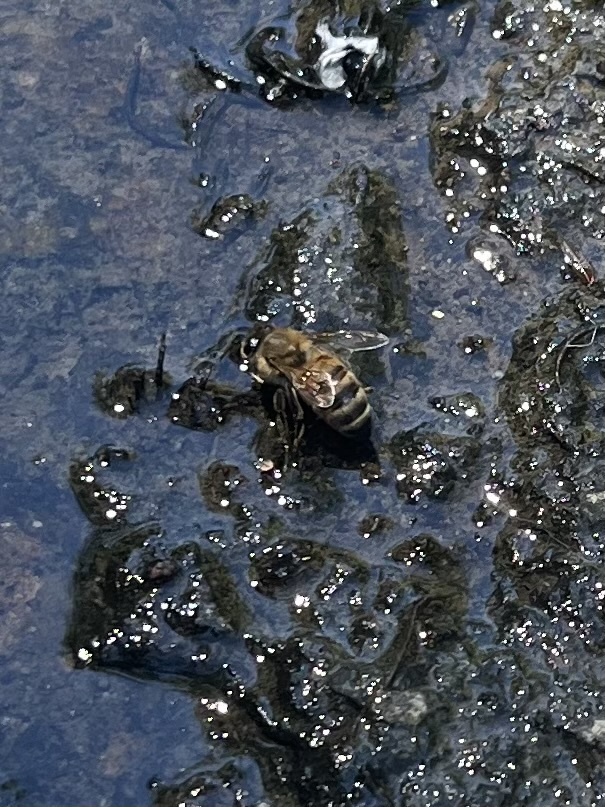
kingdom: Animalia
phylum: Arthropoda
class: Insecta
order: Hymenoptera
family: Apidae
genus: Apis
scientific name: Apis mellifera
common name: Honey bee
